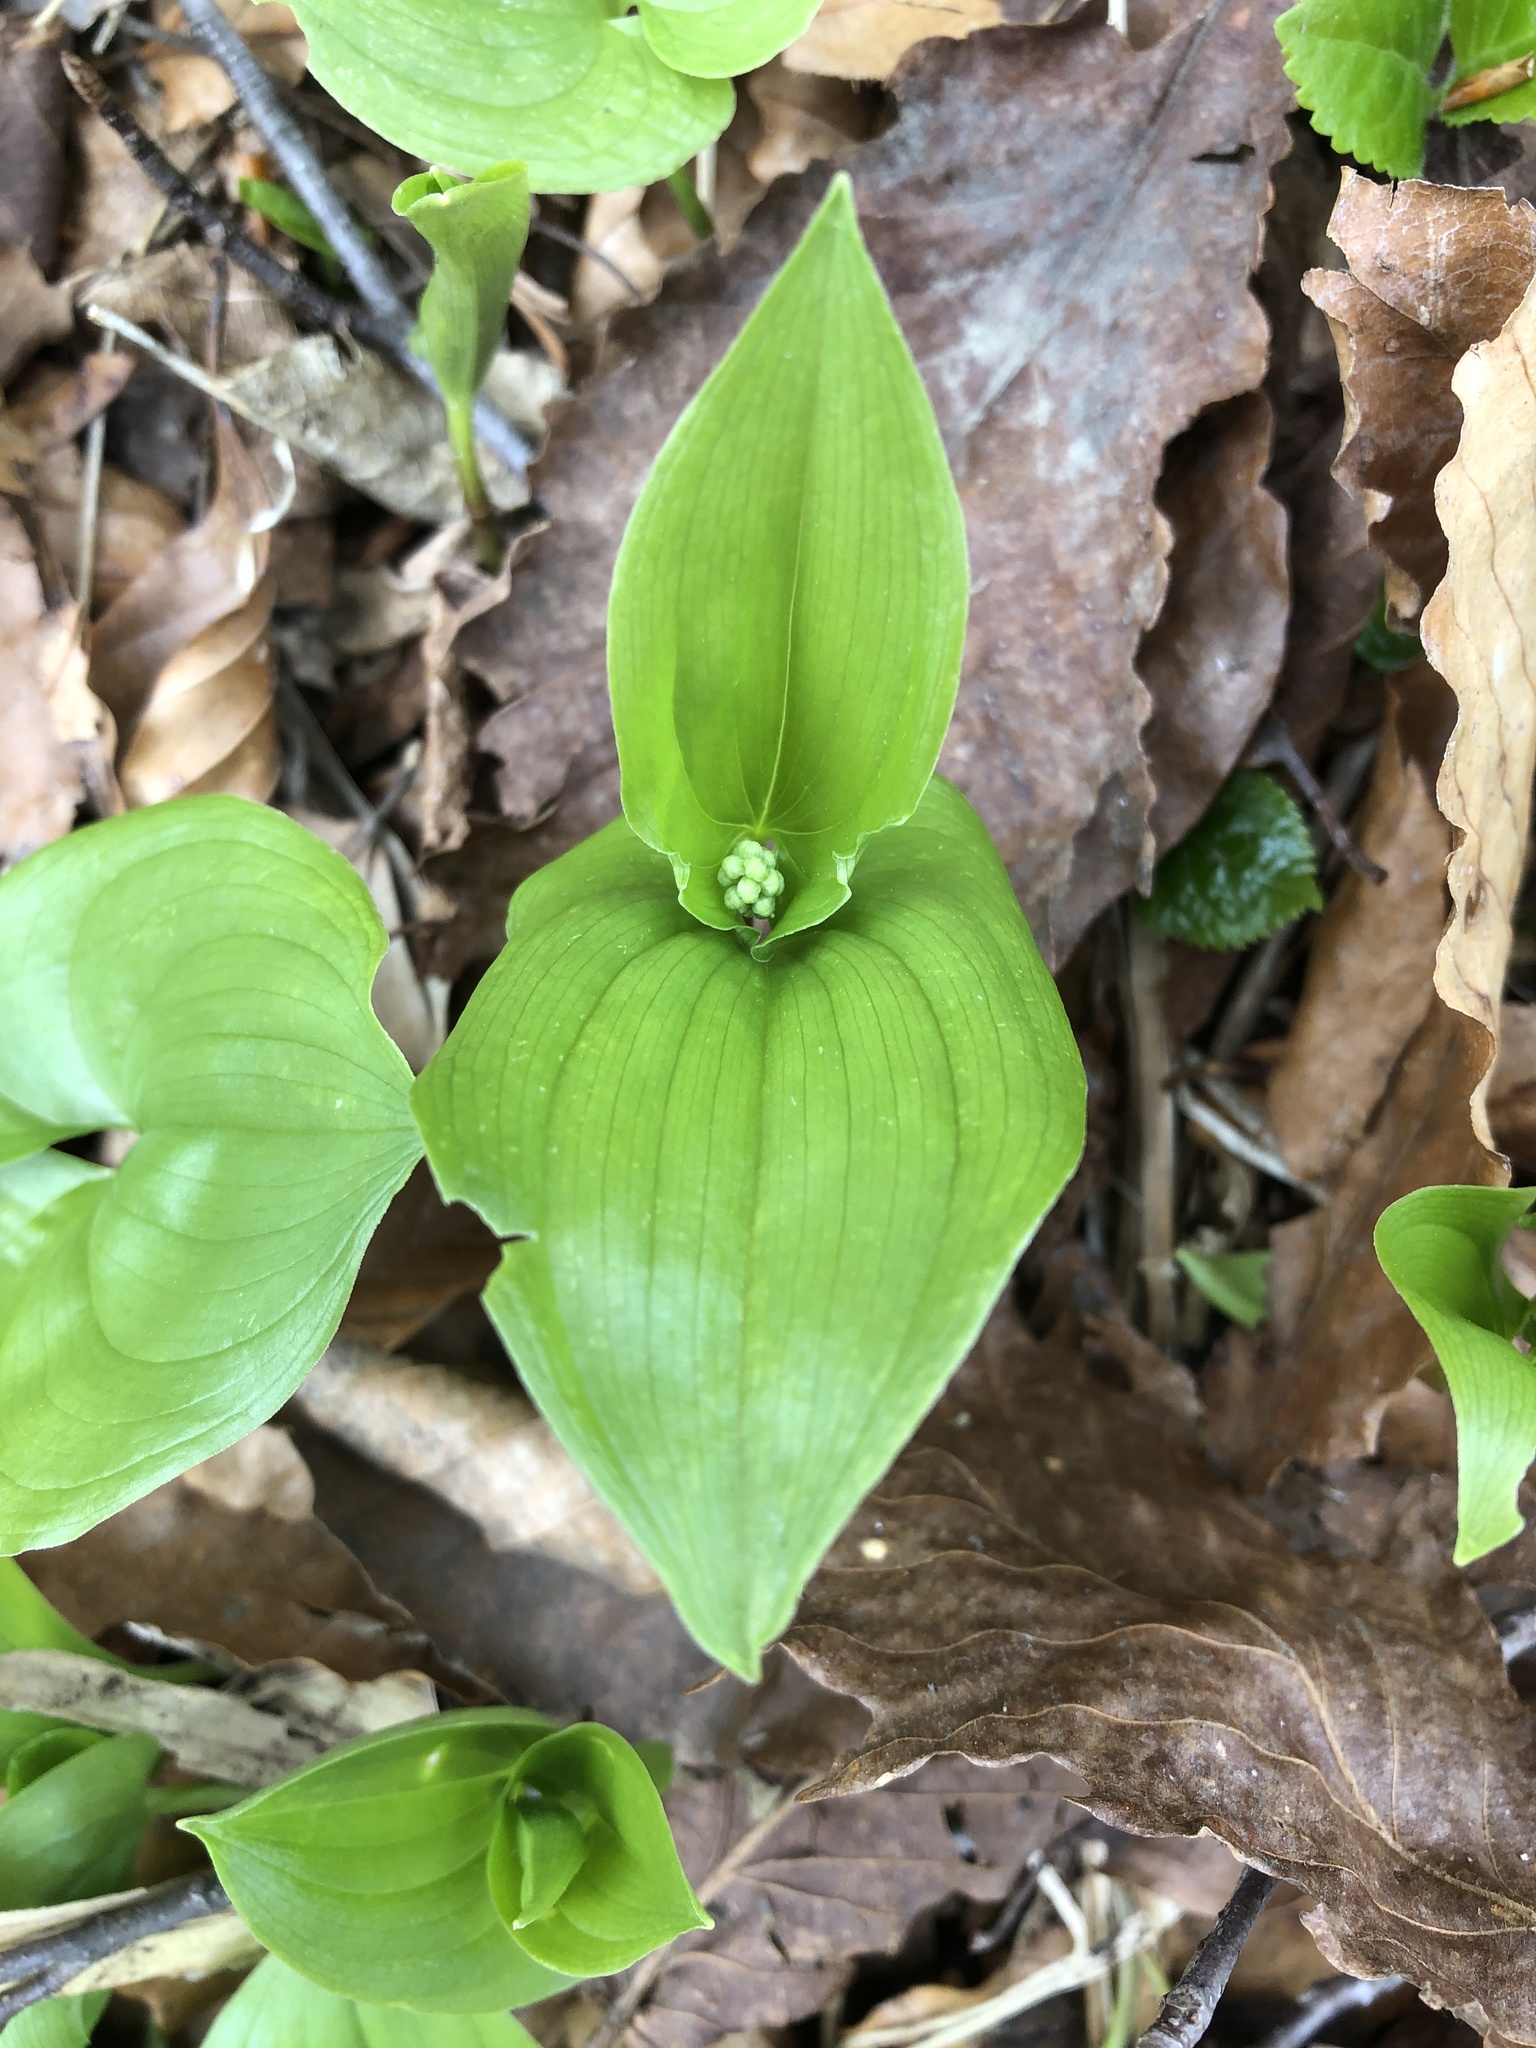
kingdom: Plantae
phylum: Tracheophyta
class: Liliopsida
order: Asparagales
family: Asparagaceae
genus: Maianthemum
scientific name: Maianthemum dilatatum
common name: False lily-of-the-valley
